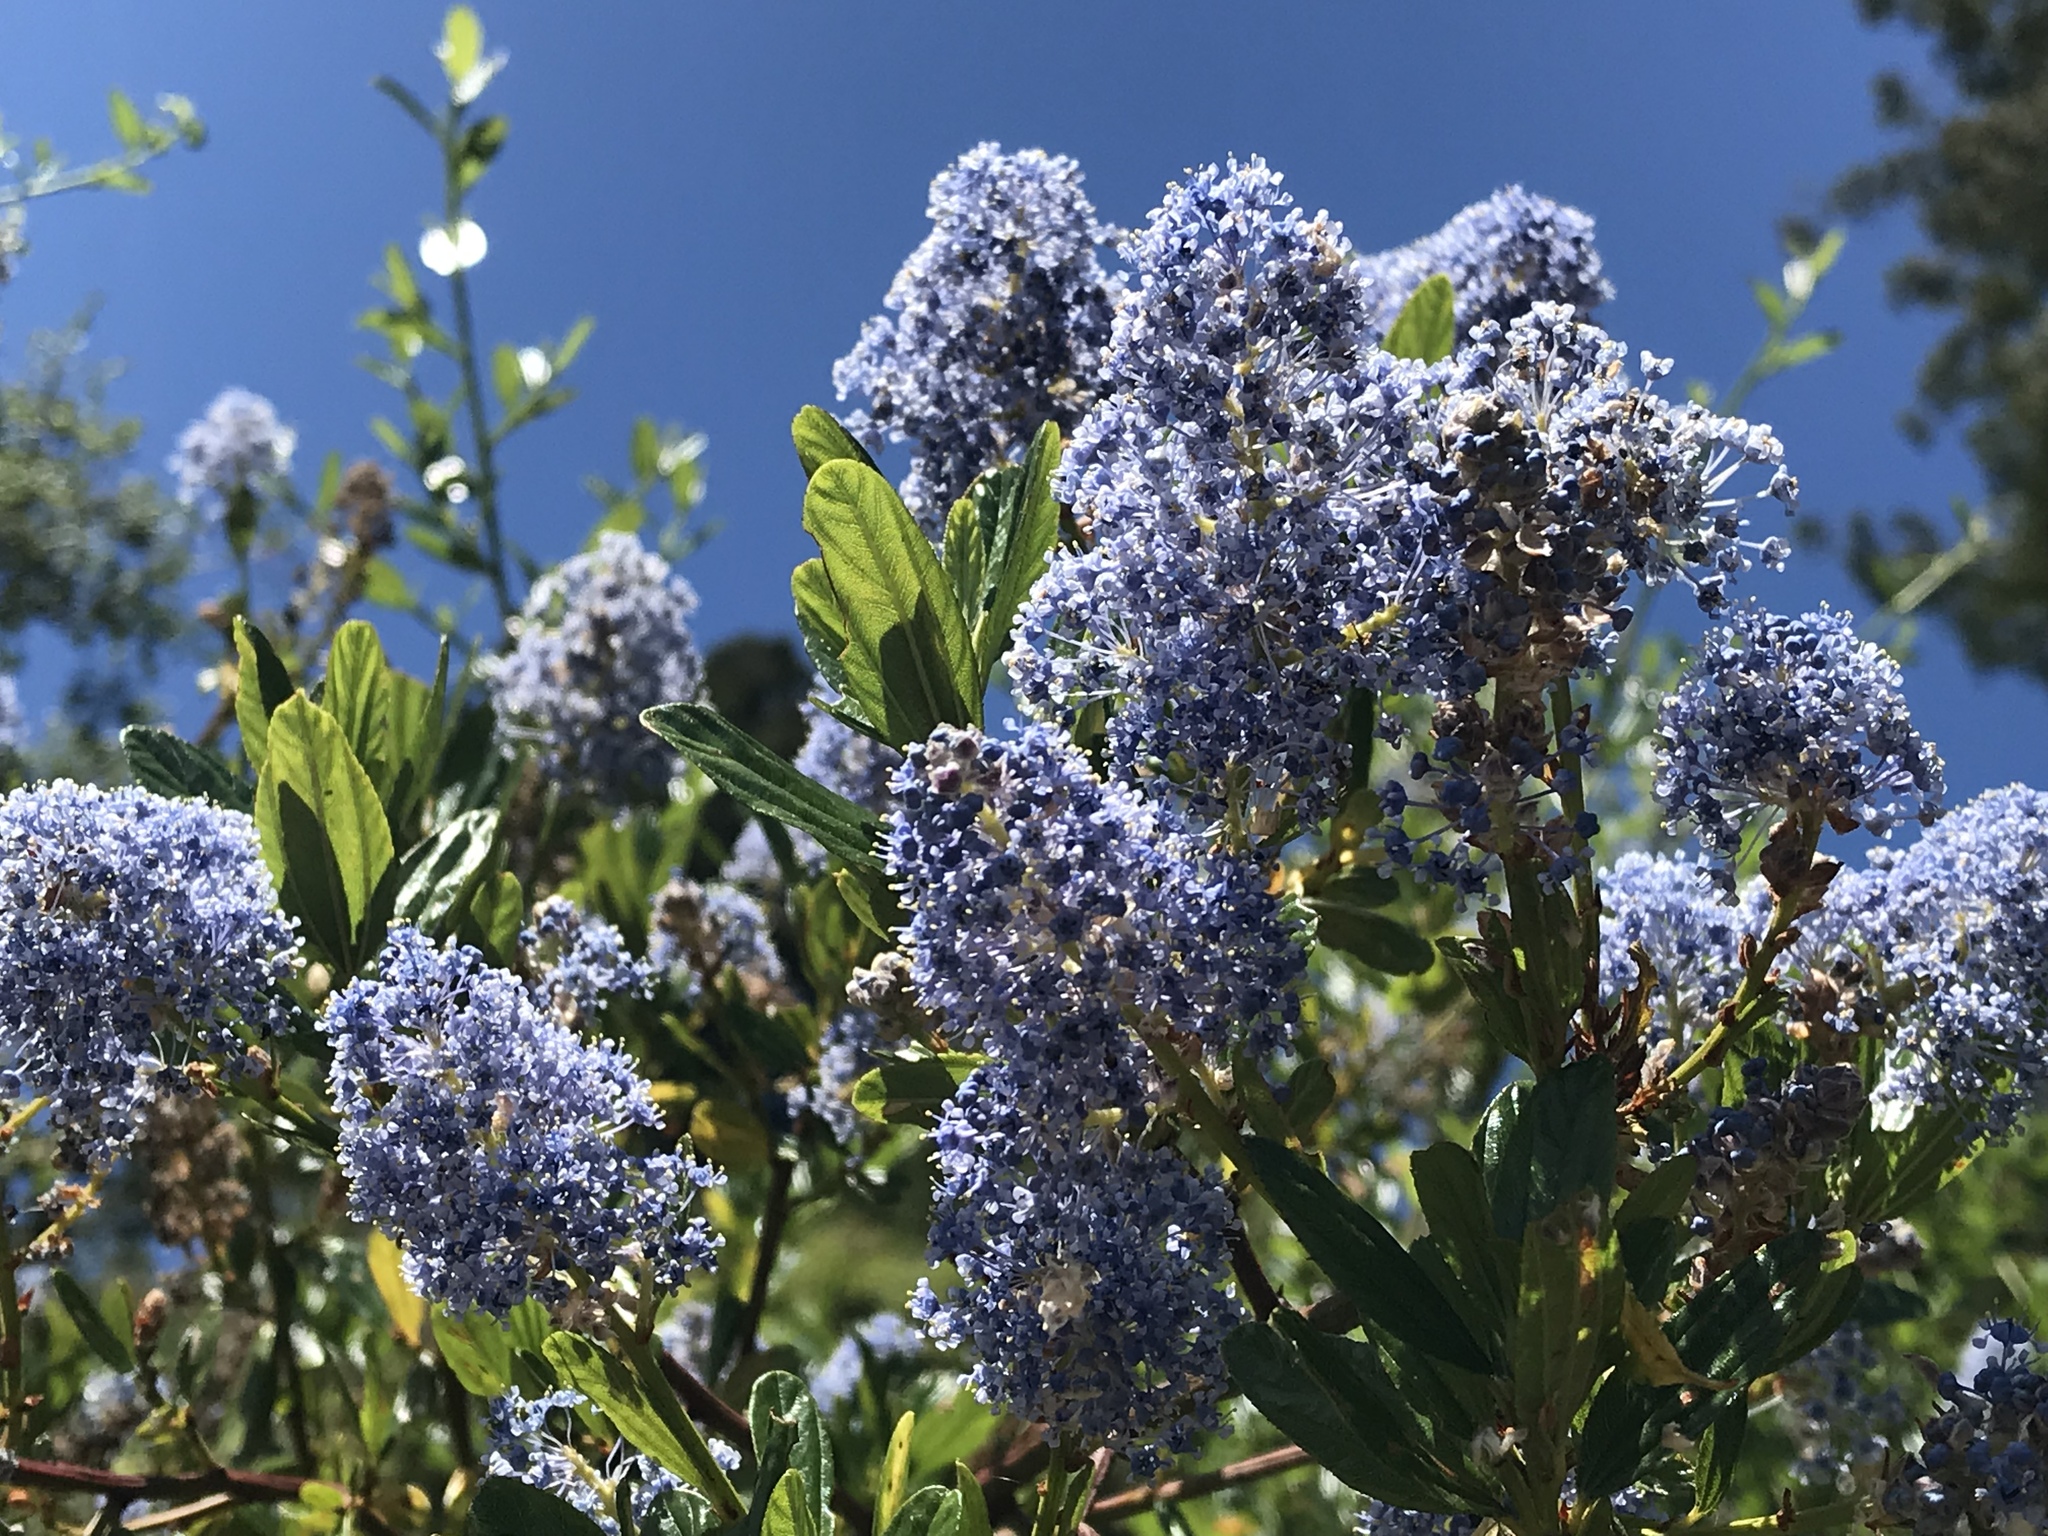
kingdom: Plantae
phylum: Tracheophyta
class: Magnoliopsida
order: Rosales
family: Rhamnaceae
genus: Ceanothus
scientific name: Ceanothus thyrsiflorus
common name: California-lilac
